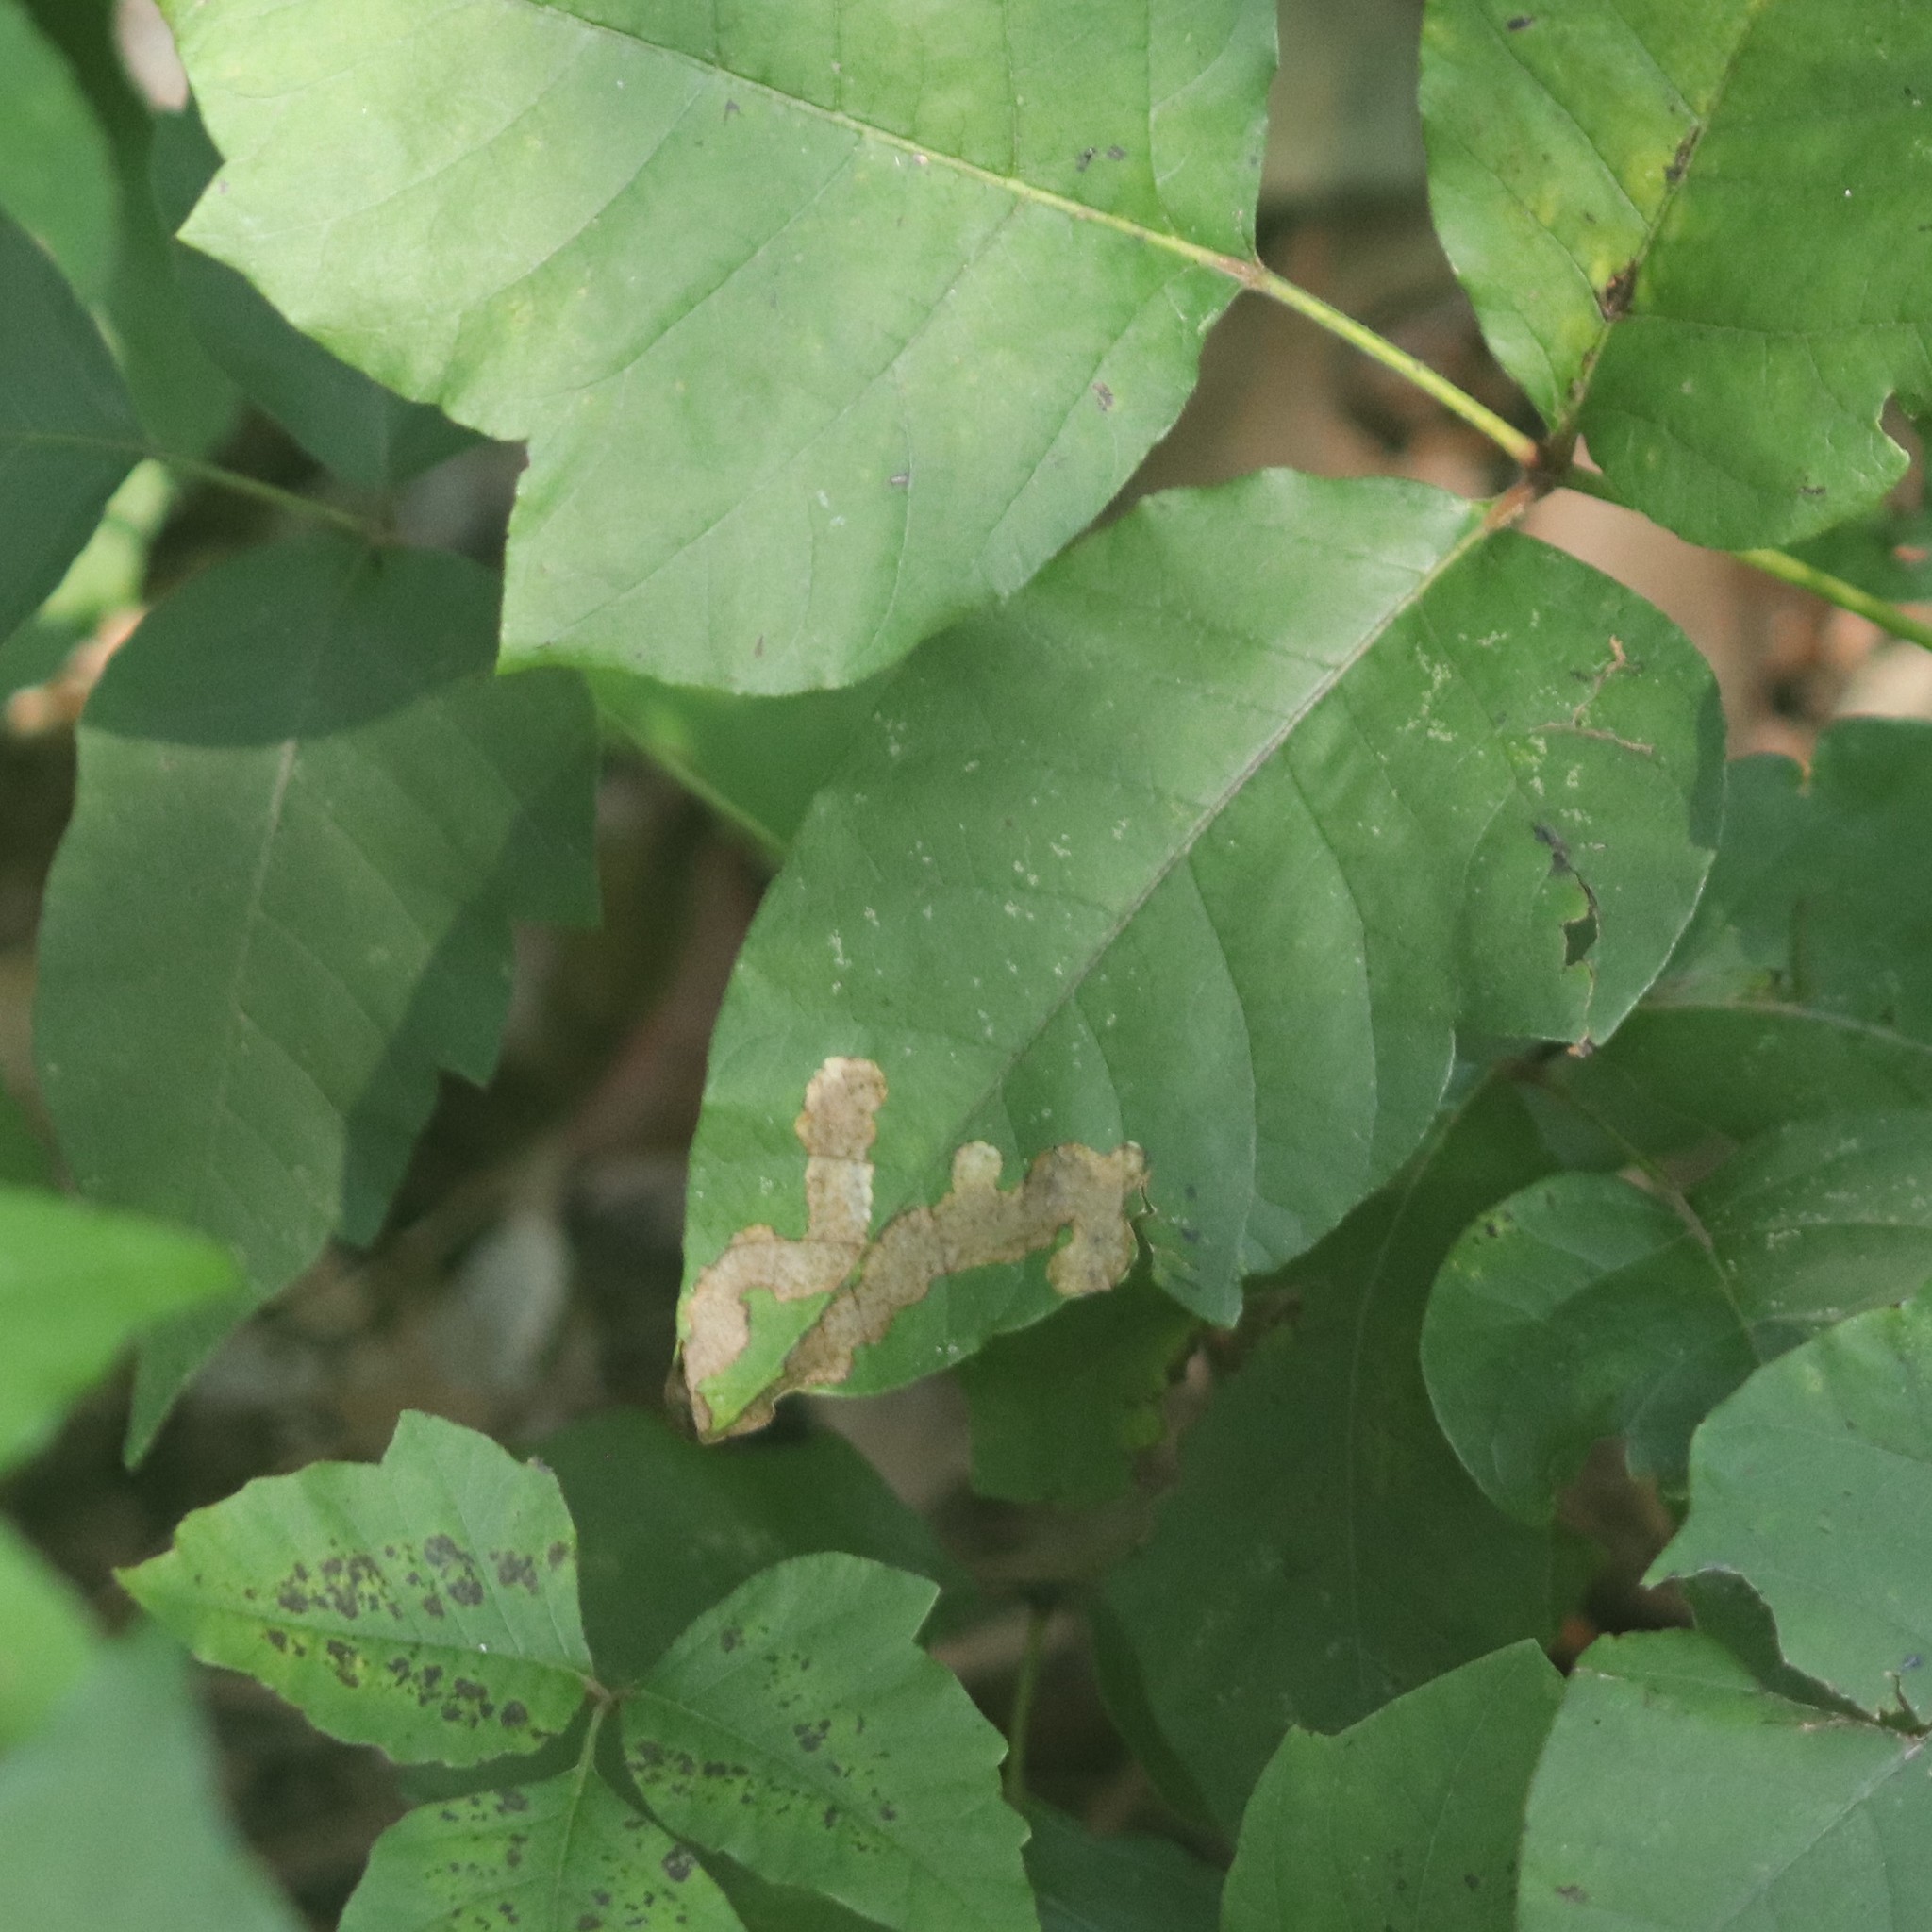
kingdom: Animalia
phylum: Arthropoda
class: Insecta
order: Lepidoptera
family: Gracillariidae
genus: Cameraria
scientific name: Cameraria guttifinitella
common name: Poison ivy leaf-miner moth
